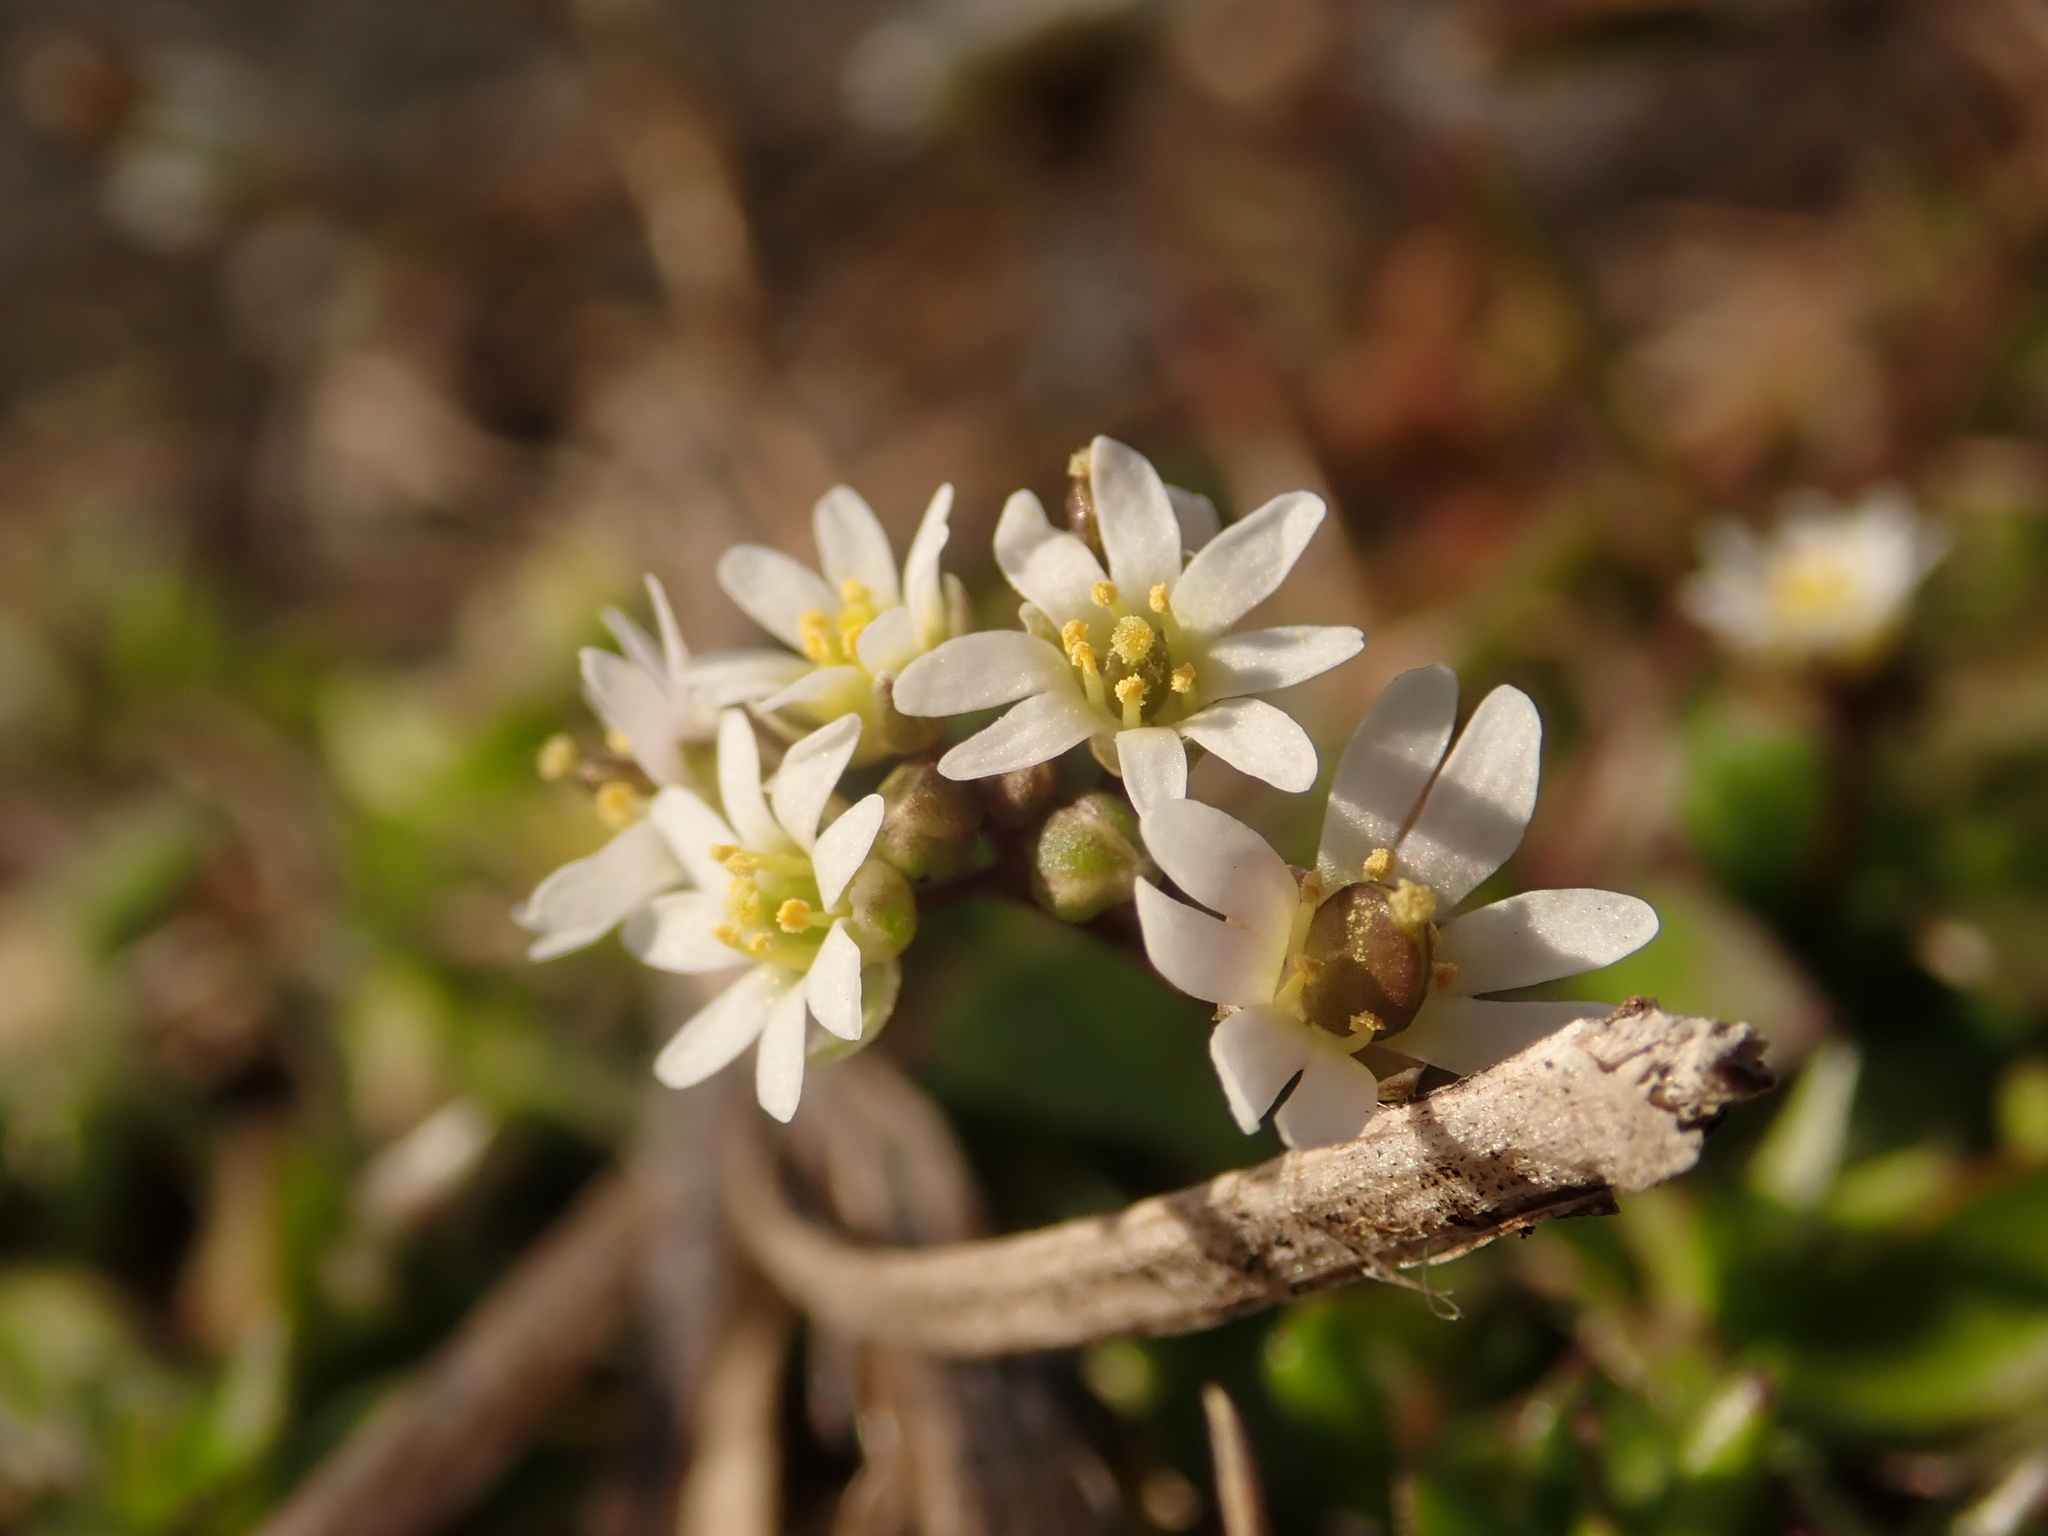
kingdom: Plantae
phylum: Tracheophyta
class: Magnoliopsida
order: Brassicales
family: Brassicaceae
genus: Draba
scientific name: Draba verna
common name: Spring draba
